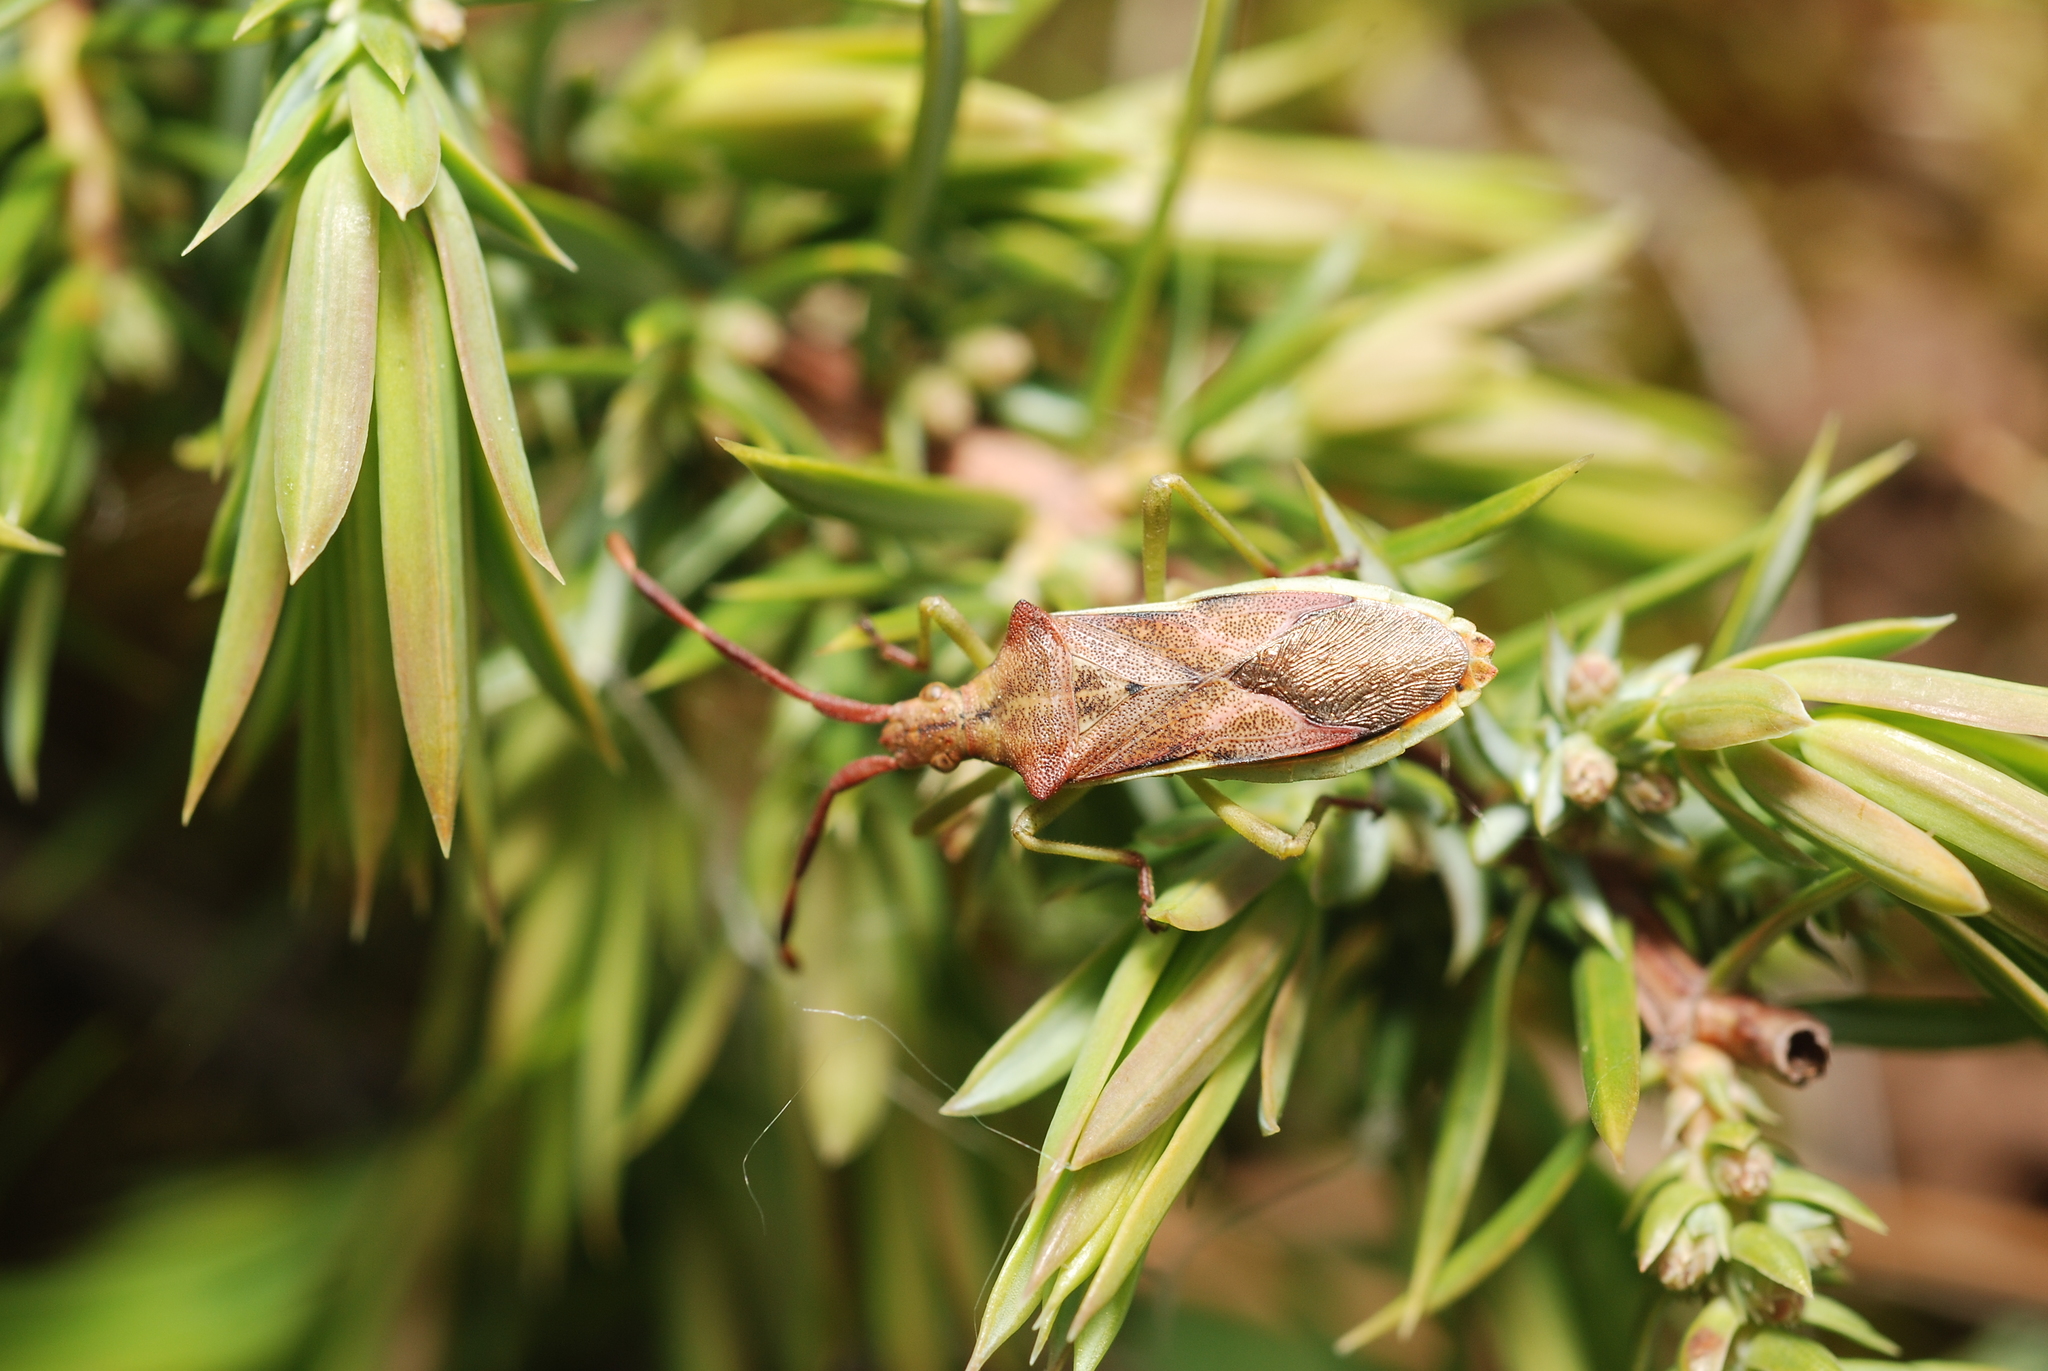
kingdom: Animalia
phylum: Arthropoda
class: Insecta
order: Hemiptera
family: Coreidae
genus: Gonocerus
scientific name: Gonocerus juniperi
